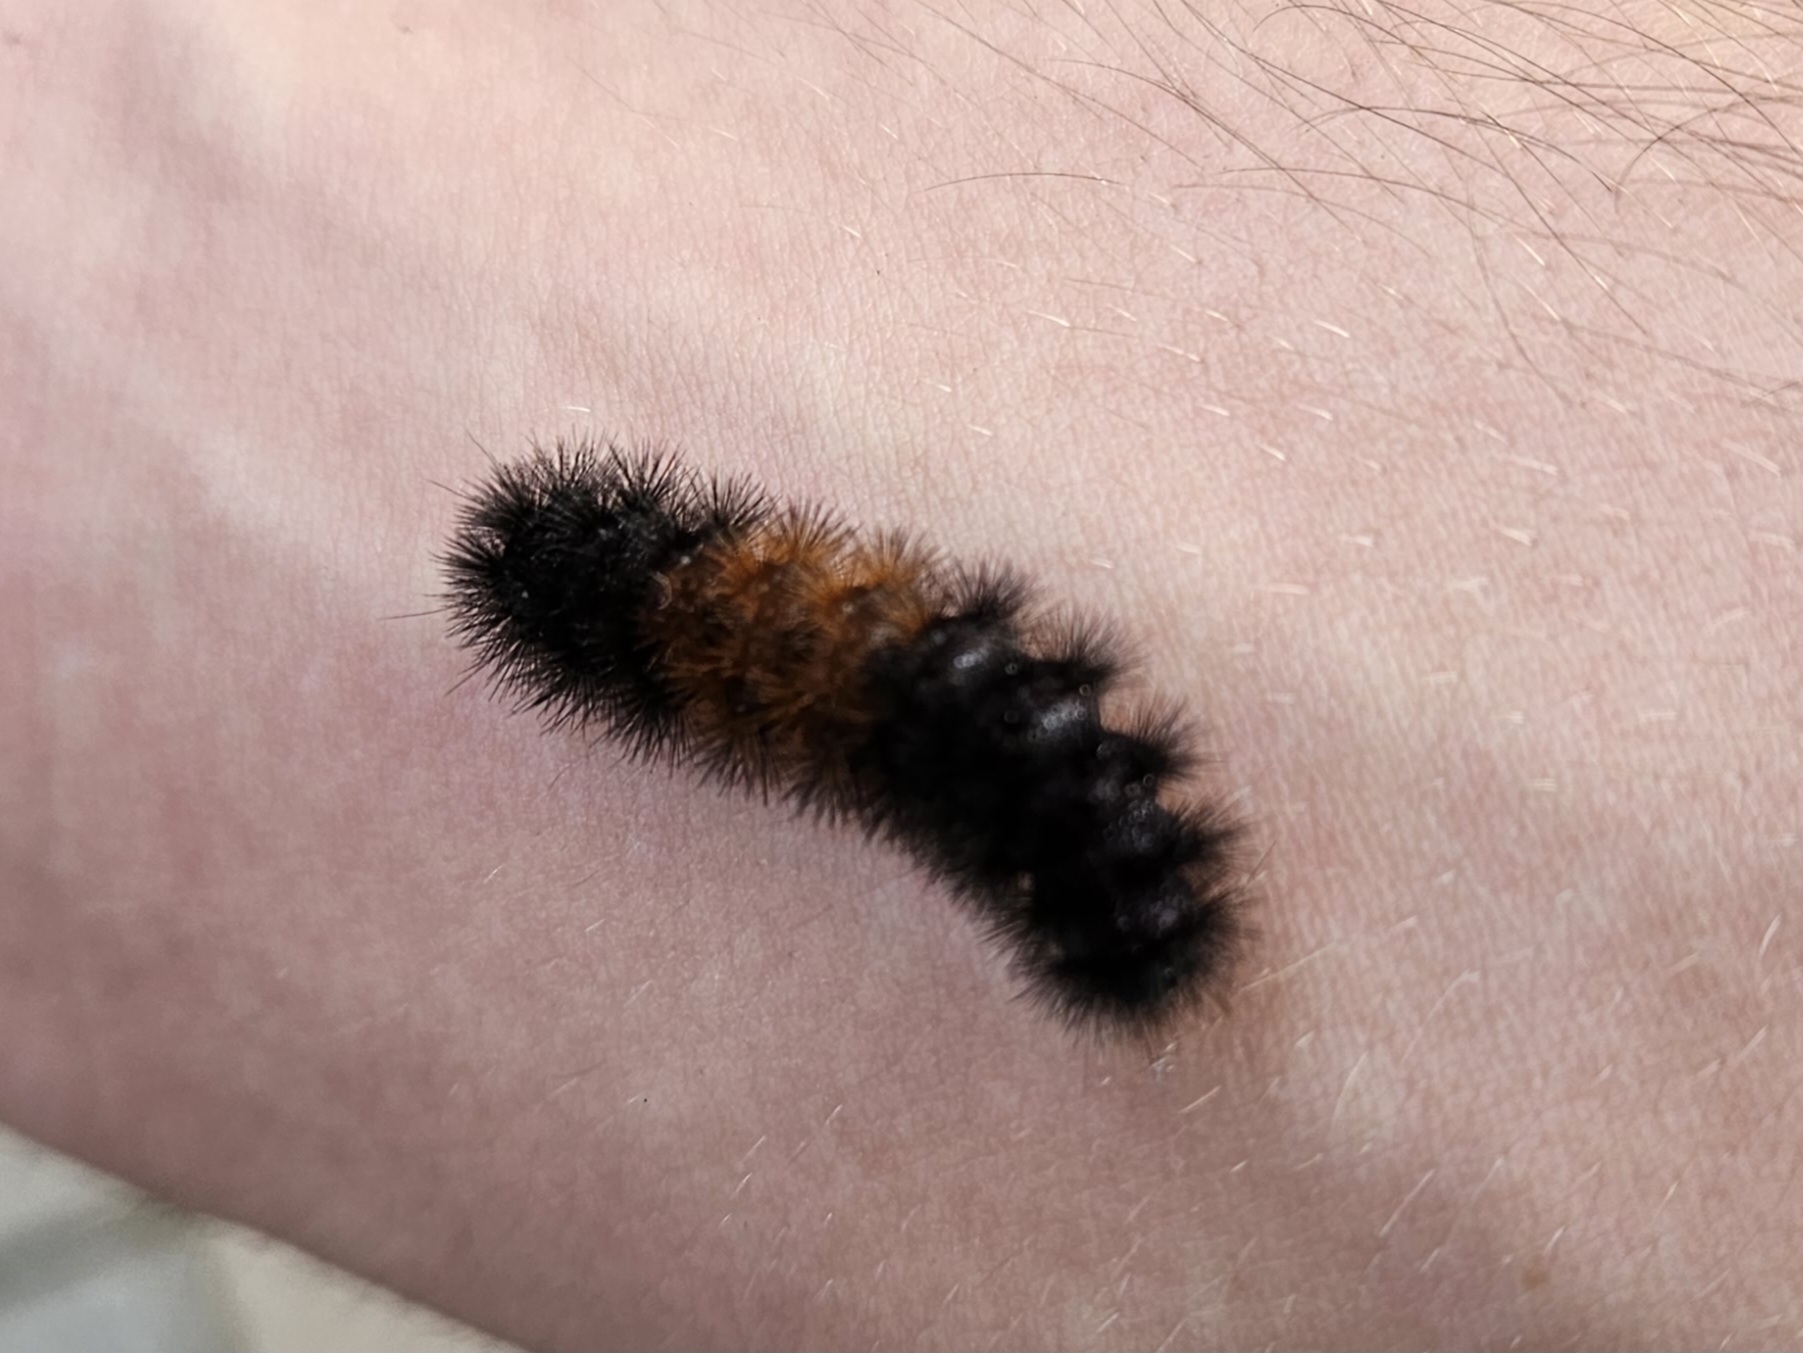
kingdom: Animalia
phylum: Arthropoda
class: Insecta
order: Lepidoptera
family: Erebidae
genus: Pyrrharctia
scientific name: Pyrrharctia isabella
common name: Isabella tiger moth
